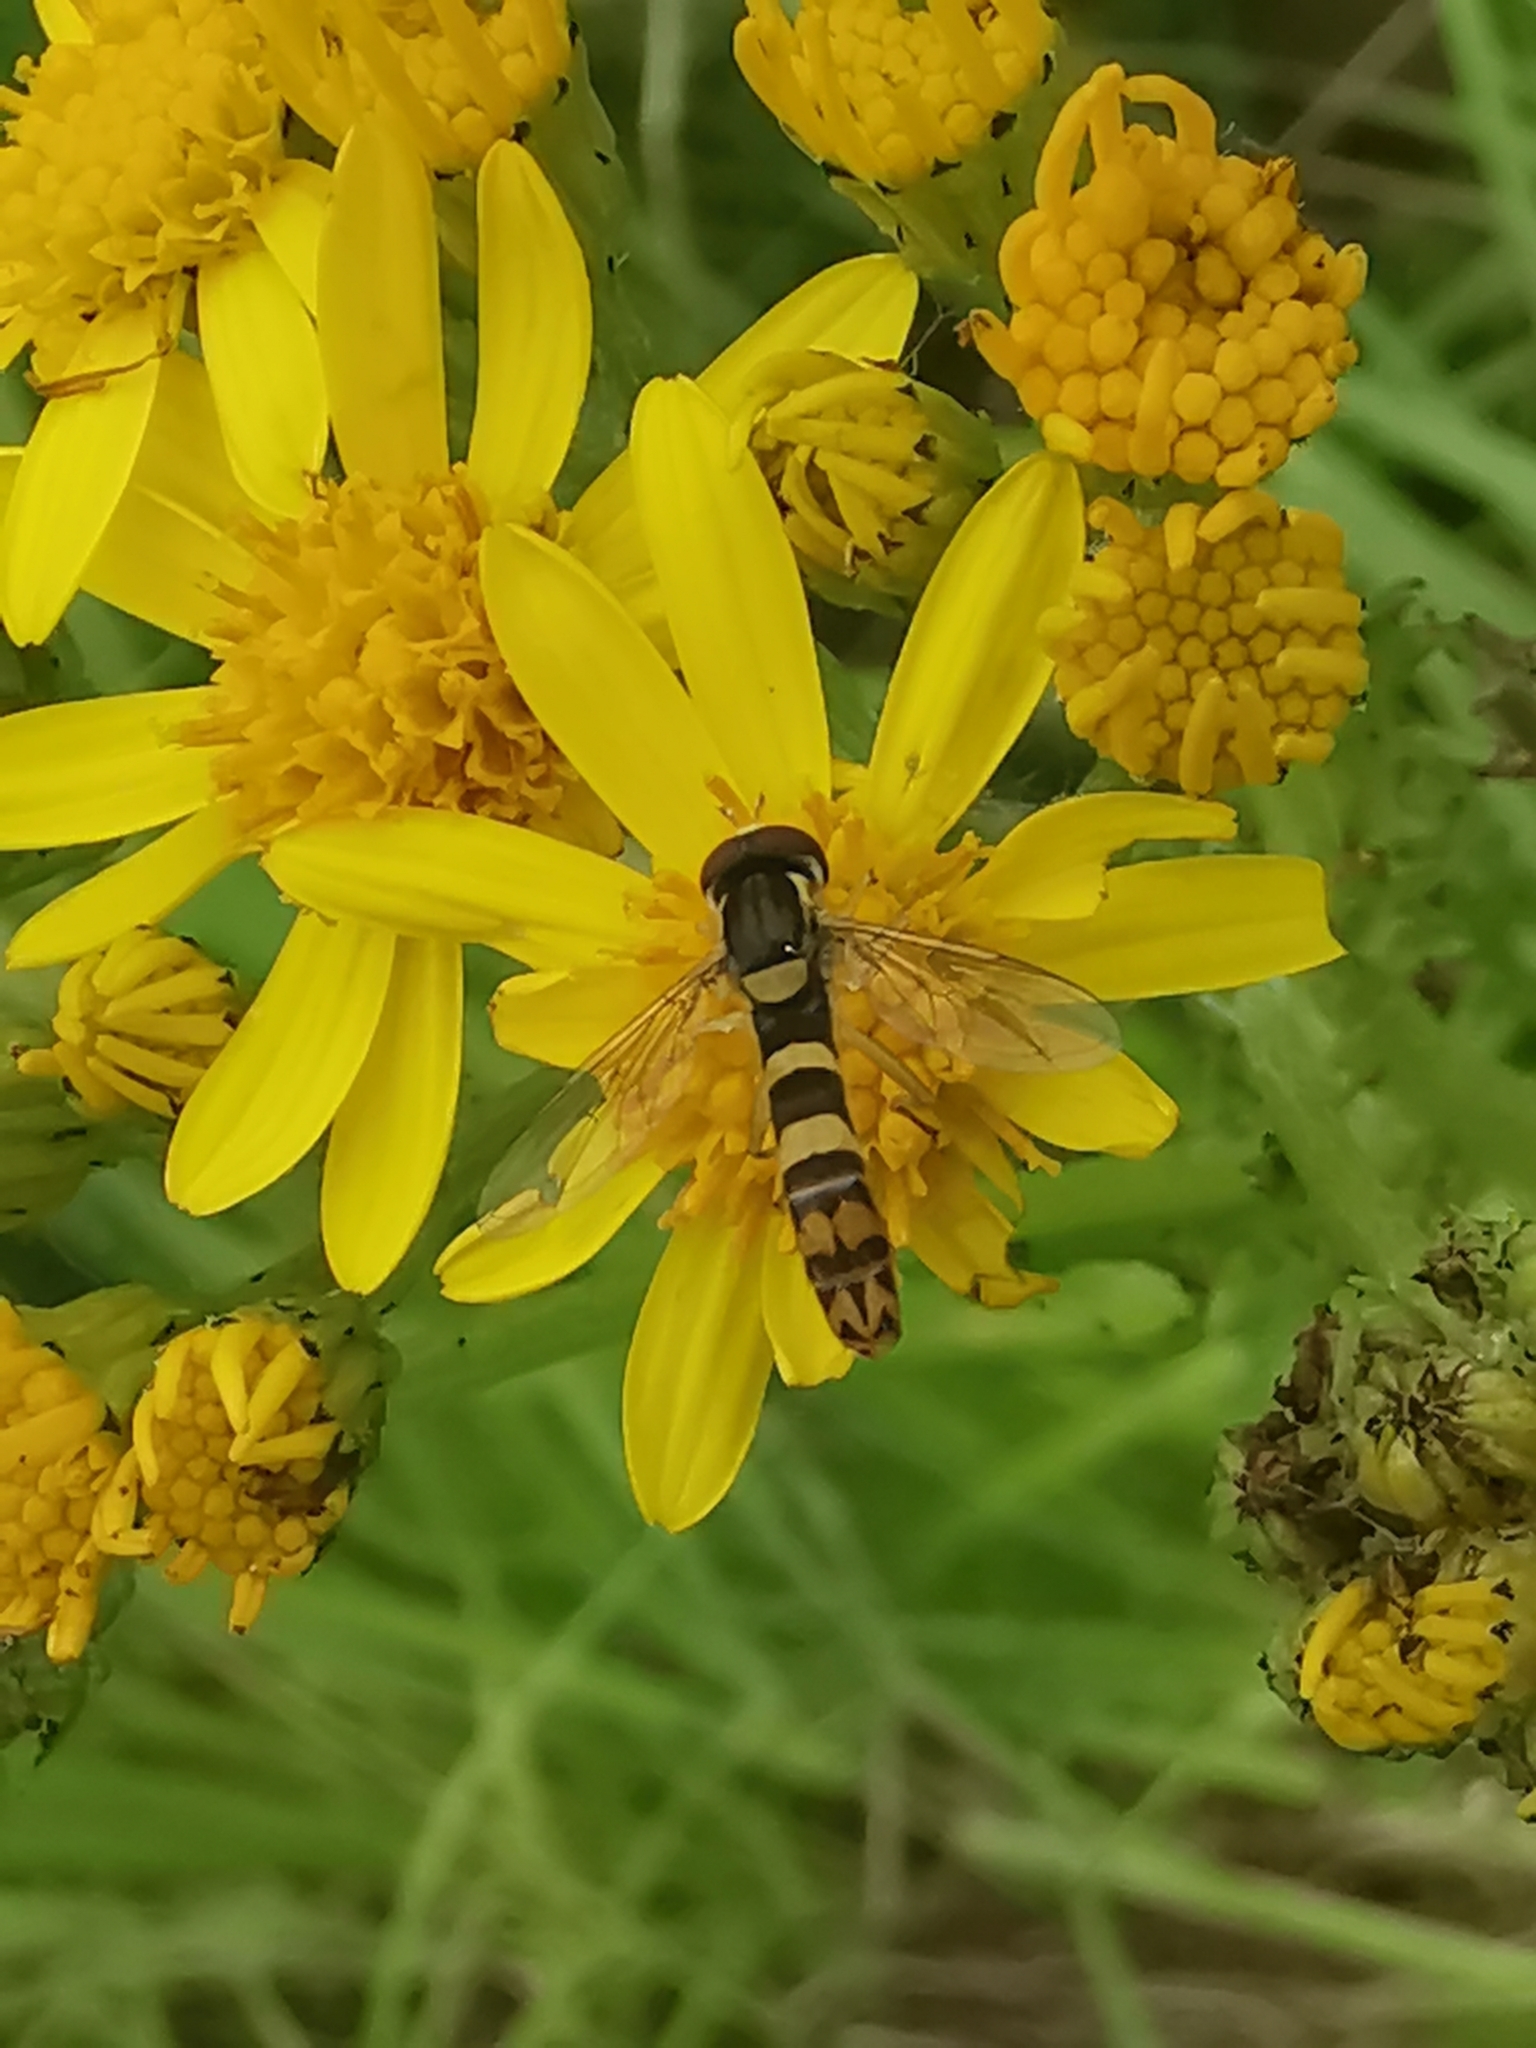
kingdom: Animalia
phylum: Arthropoda
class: Insecta
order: Diptera
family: Syrphidae
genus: Sphaerophoria
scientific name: Sphaerophoria scripta
